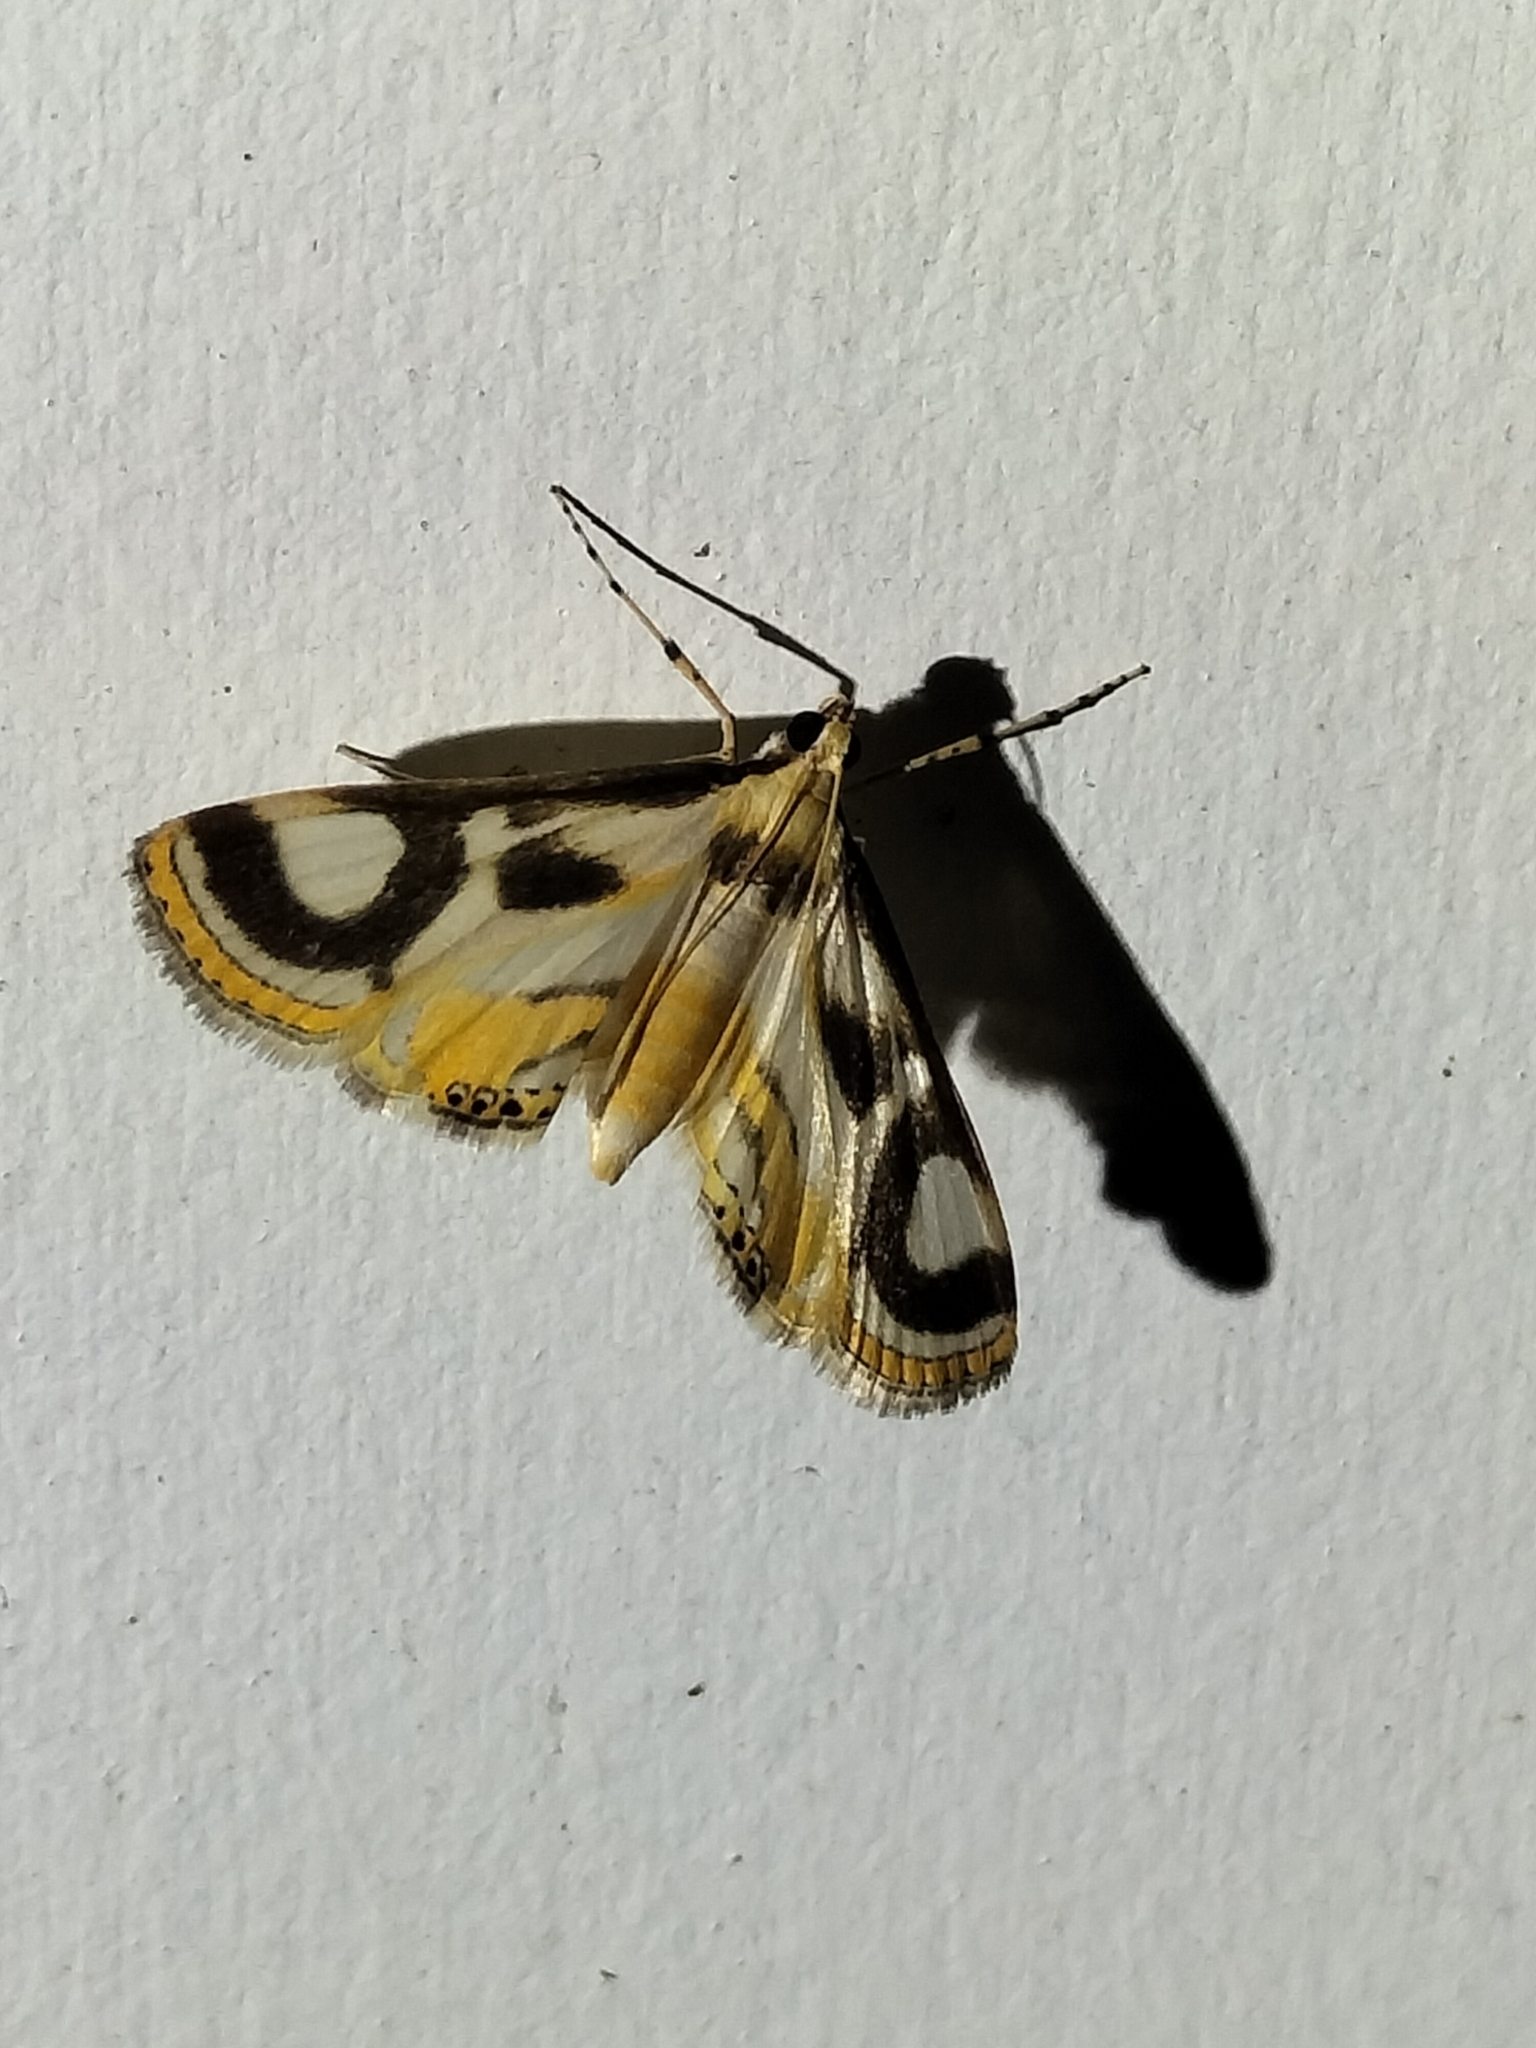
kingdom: Animalia
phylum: Arthropoda
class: Insecta
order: Lepidoptera
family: Crambidae
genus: Theila
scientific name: Theila siennata
